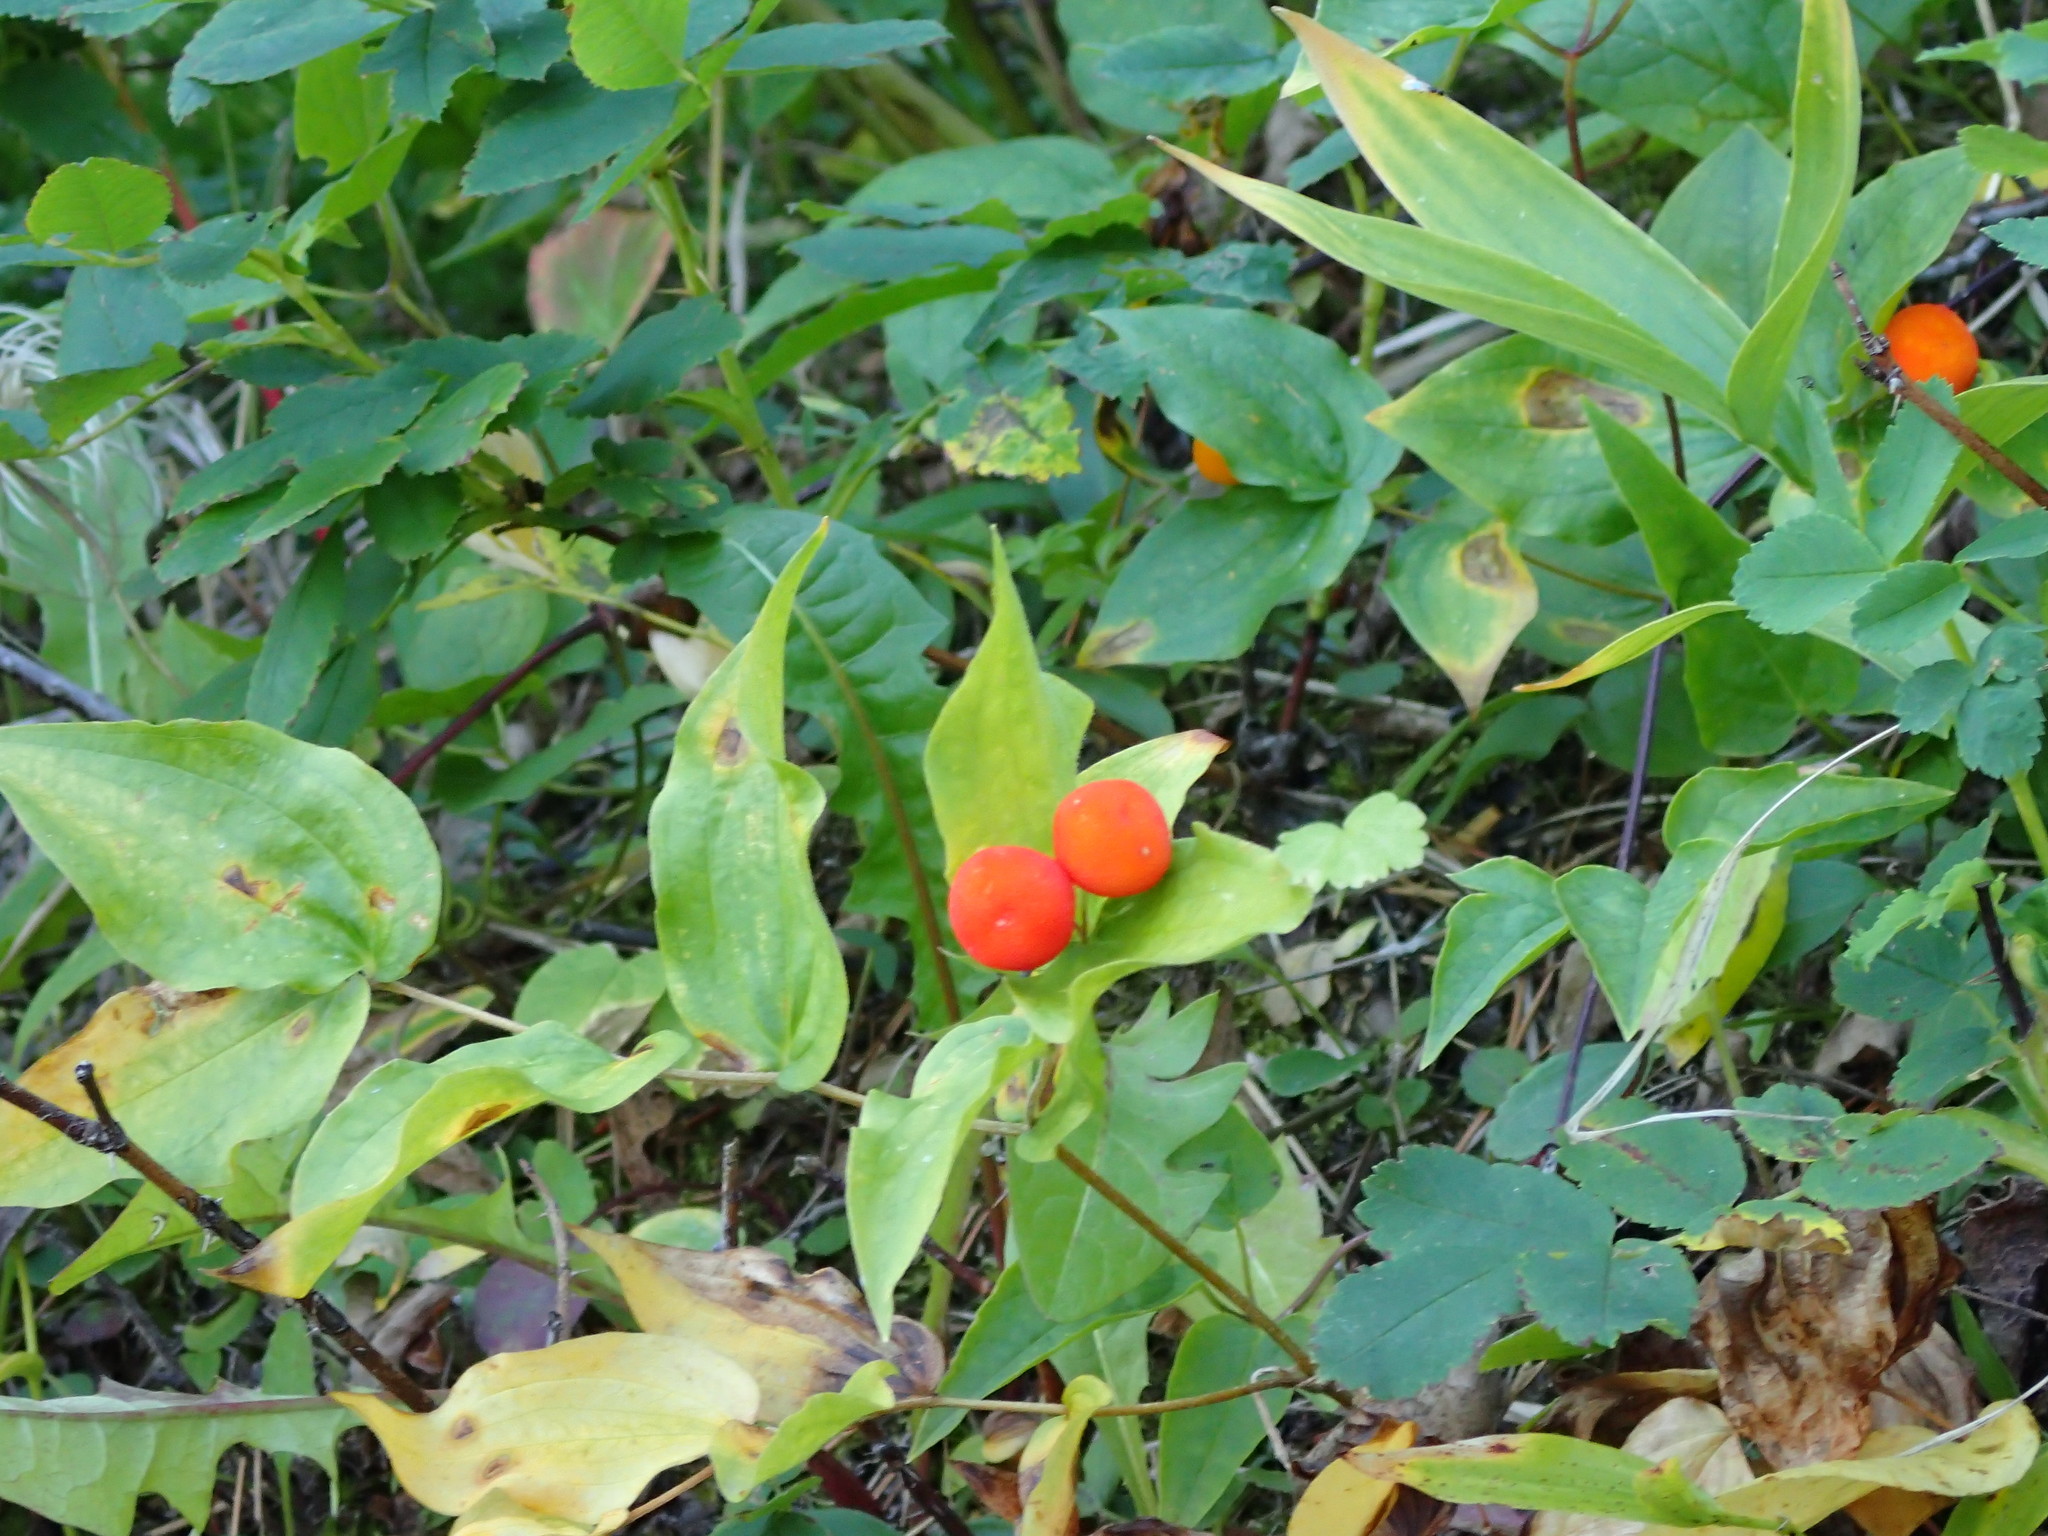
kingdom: Plantae
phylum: Tracheophyta
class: Liliopsida
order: Liliales
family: Liliaceae
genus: Prosartes
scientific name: Prosartes trachycarpa
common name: Rough-fruit fairy-bells
